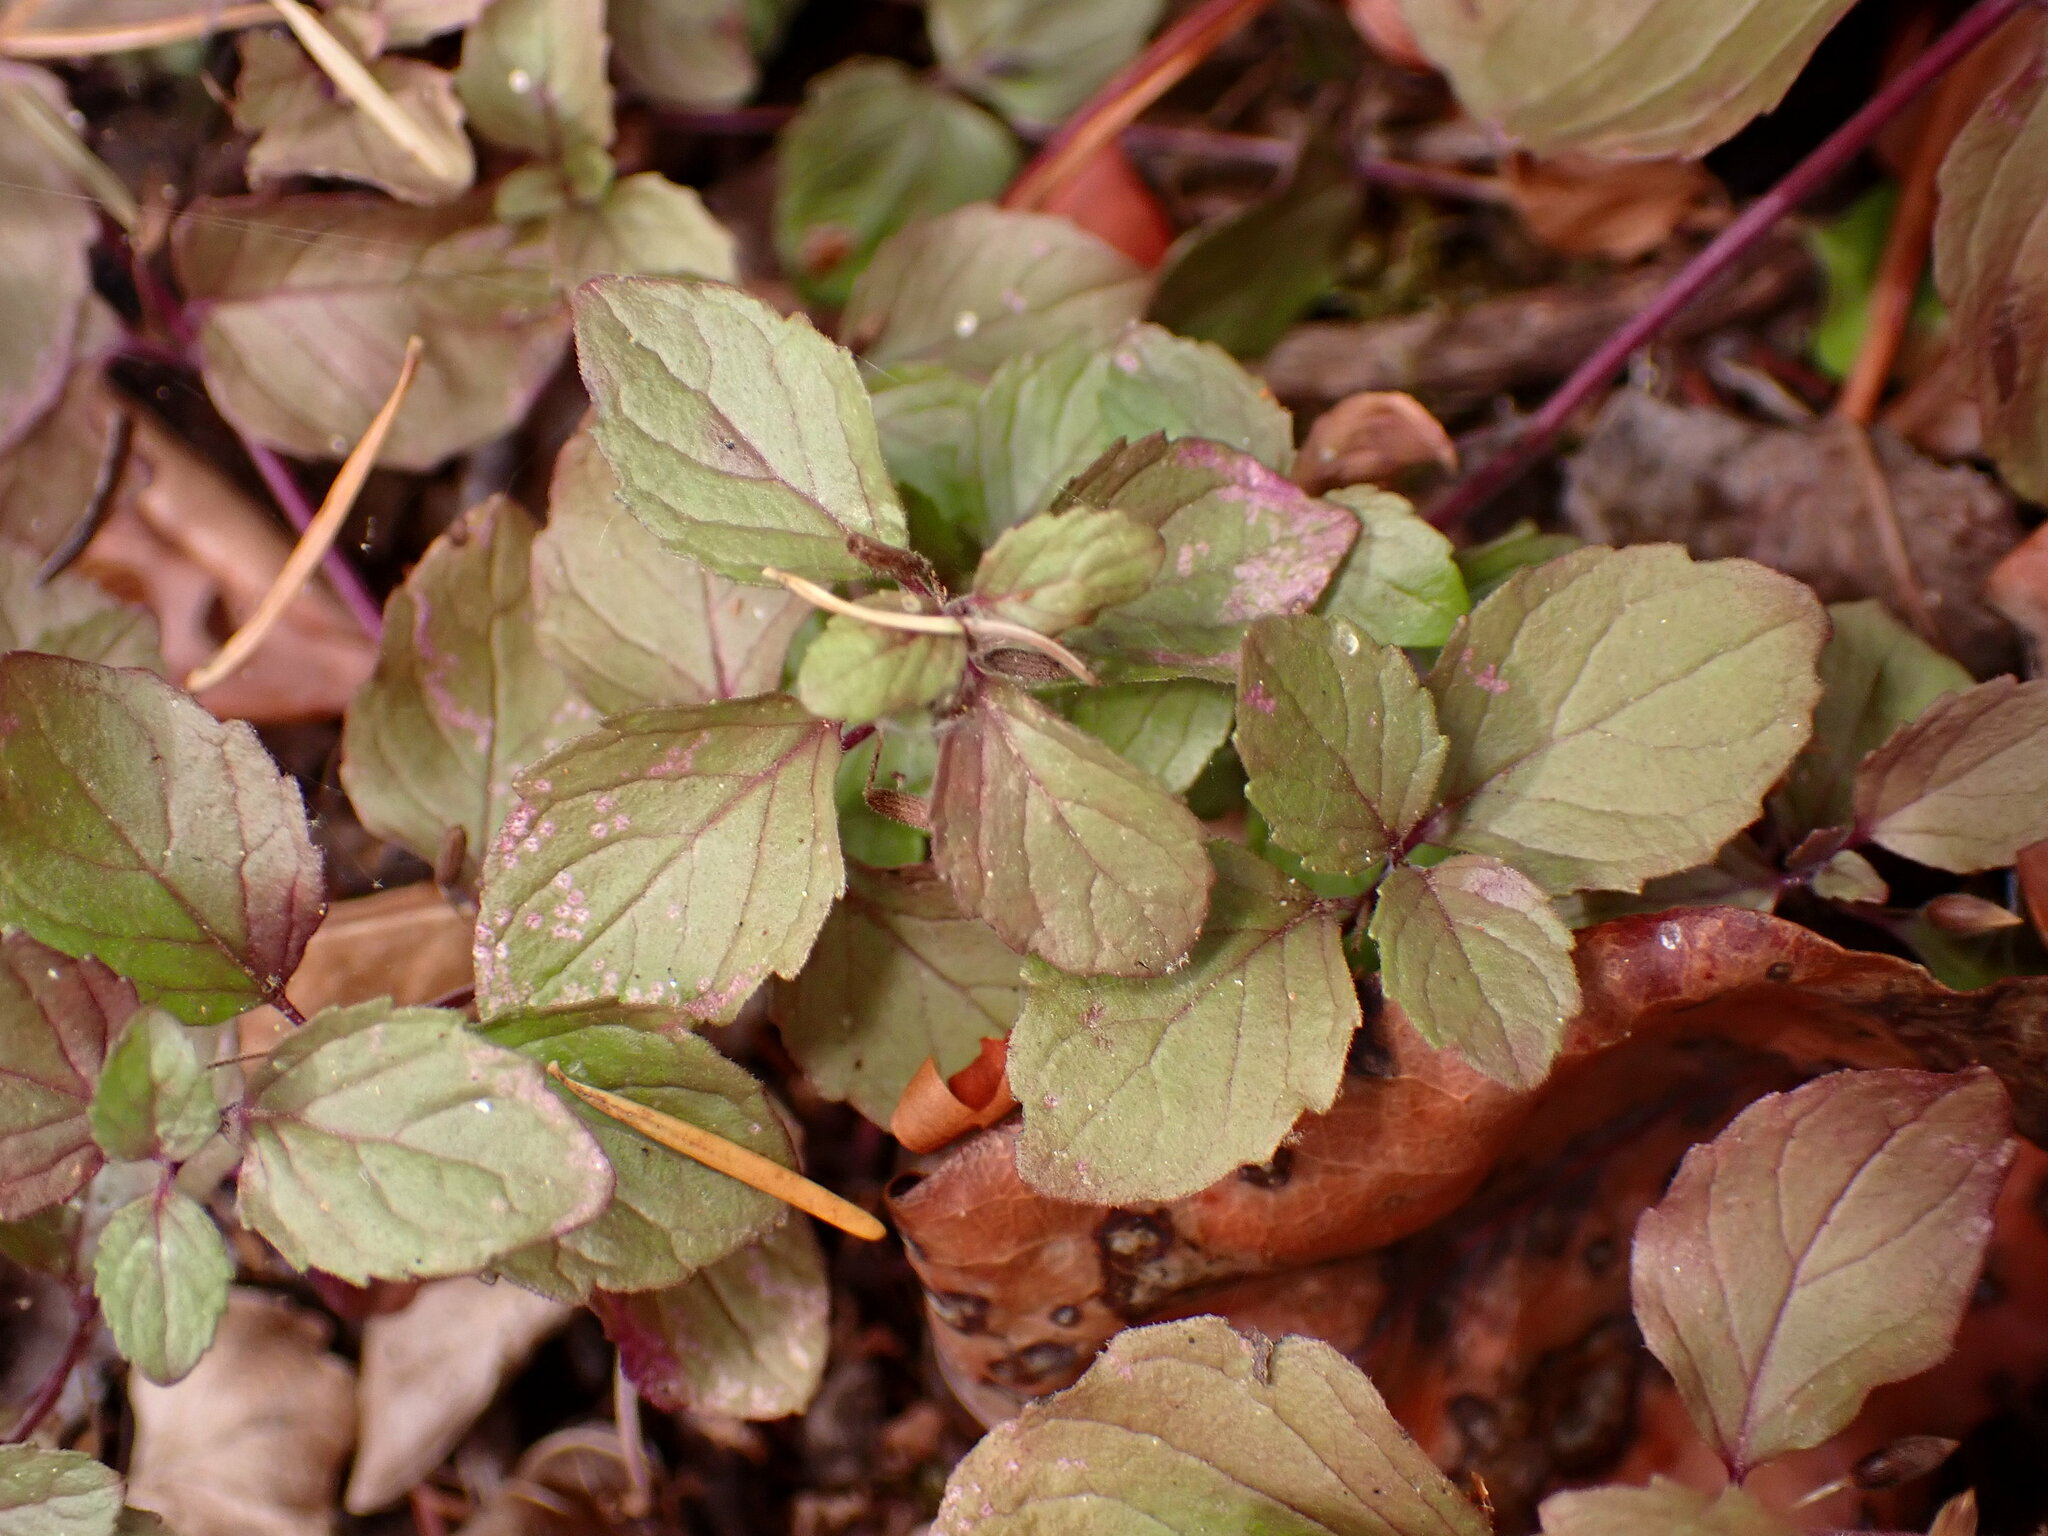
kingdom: Plantae
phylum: Tracheophyta
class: Magnoliopsida
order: Lamiales
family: Lamiaceae
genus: Micromeria
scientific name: Micromeria douglasii
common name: Yerba buena
